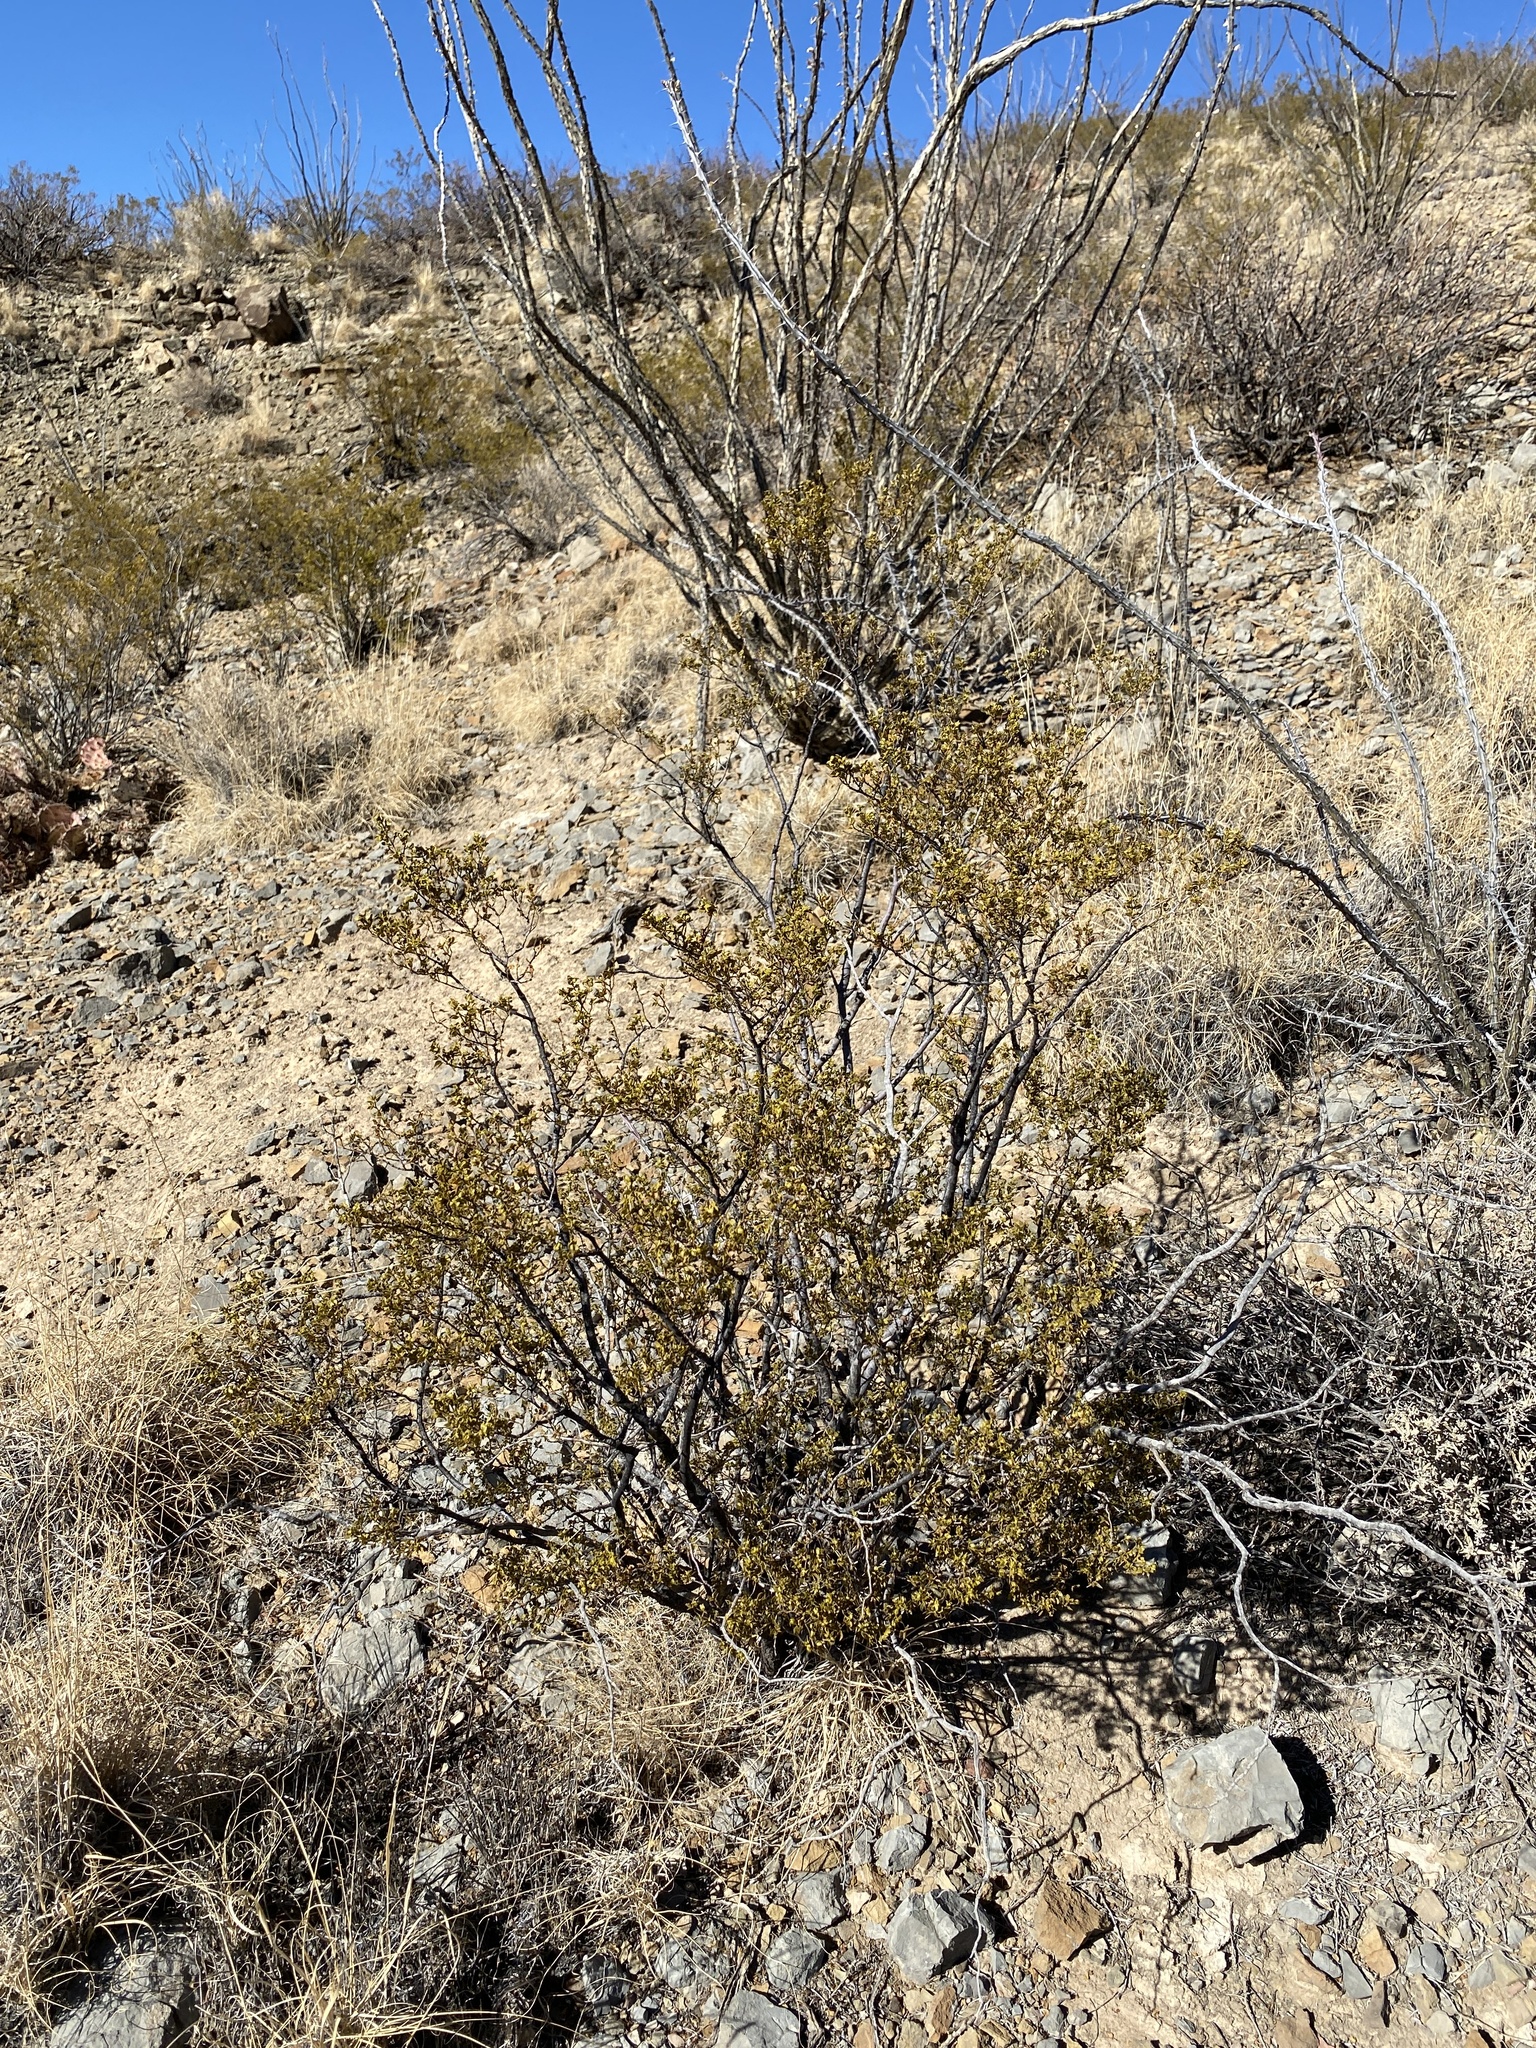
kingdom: Plantae
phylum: Tracheophyta
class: Magnoliopsida
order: Zygophyllales
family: Zygophyllaceae
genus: Larrea
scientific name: Larrea tridentata
